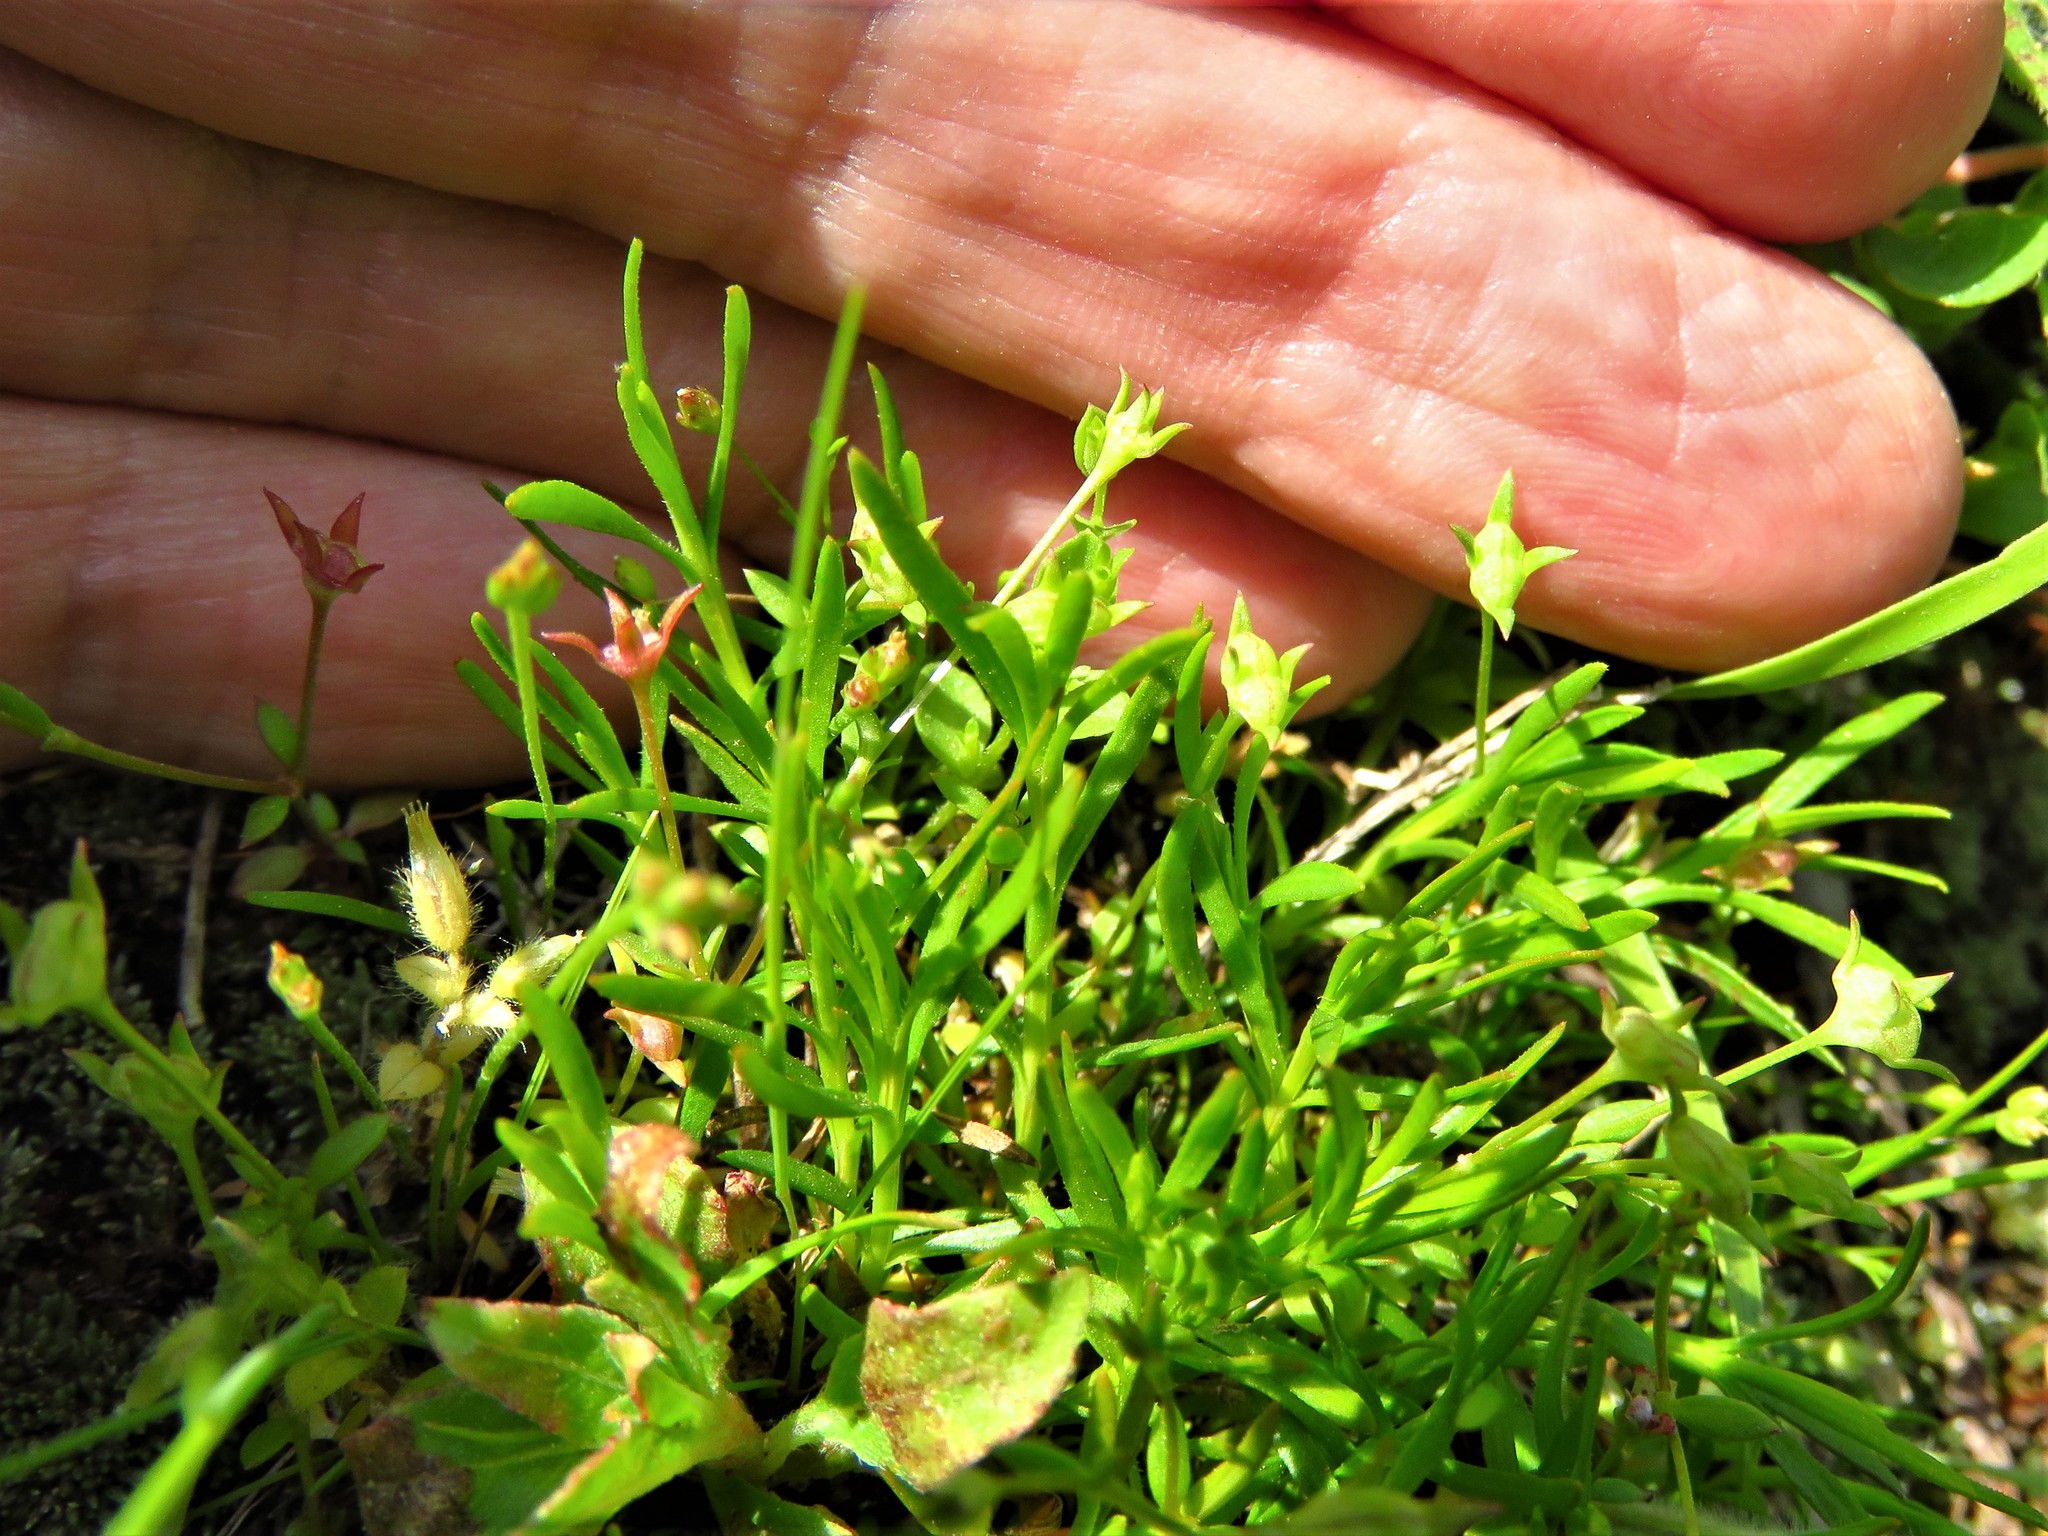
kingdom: Plantae
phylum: Tracheophyta
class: Magnoliopsida
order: Gentianales
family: Rubiaceae
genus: Houstonia
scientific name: Houstonia micrantha
